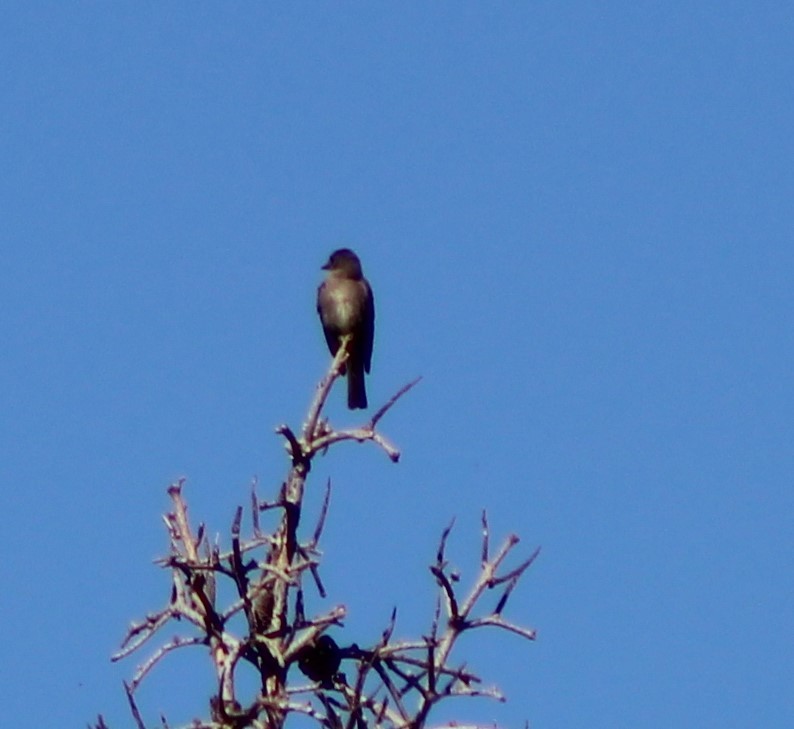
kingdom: Animalia
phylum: Chordata
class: Aves
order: Passeriformes
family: Tyrannidae
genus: Contopus
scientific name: Contopus sordidulus
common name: Western wood-pewee
